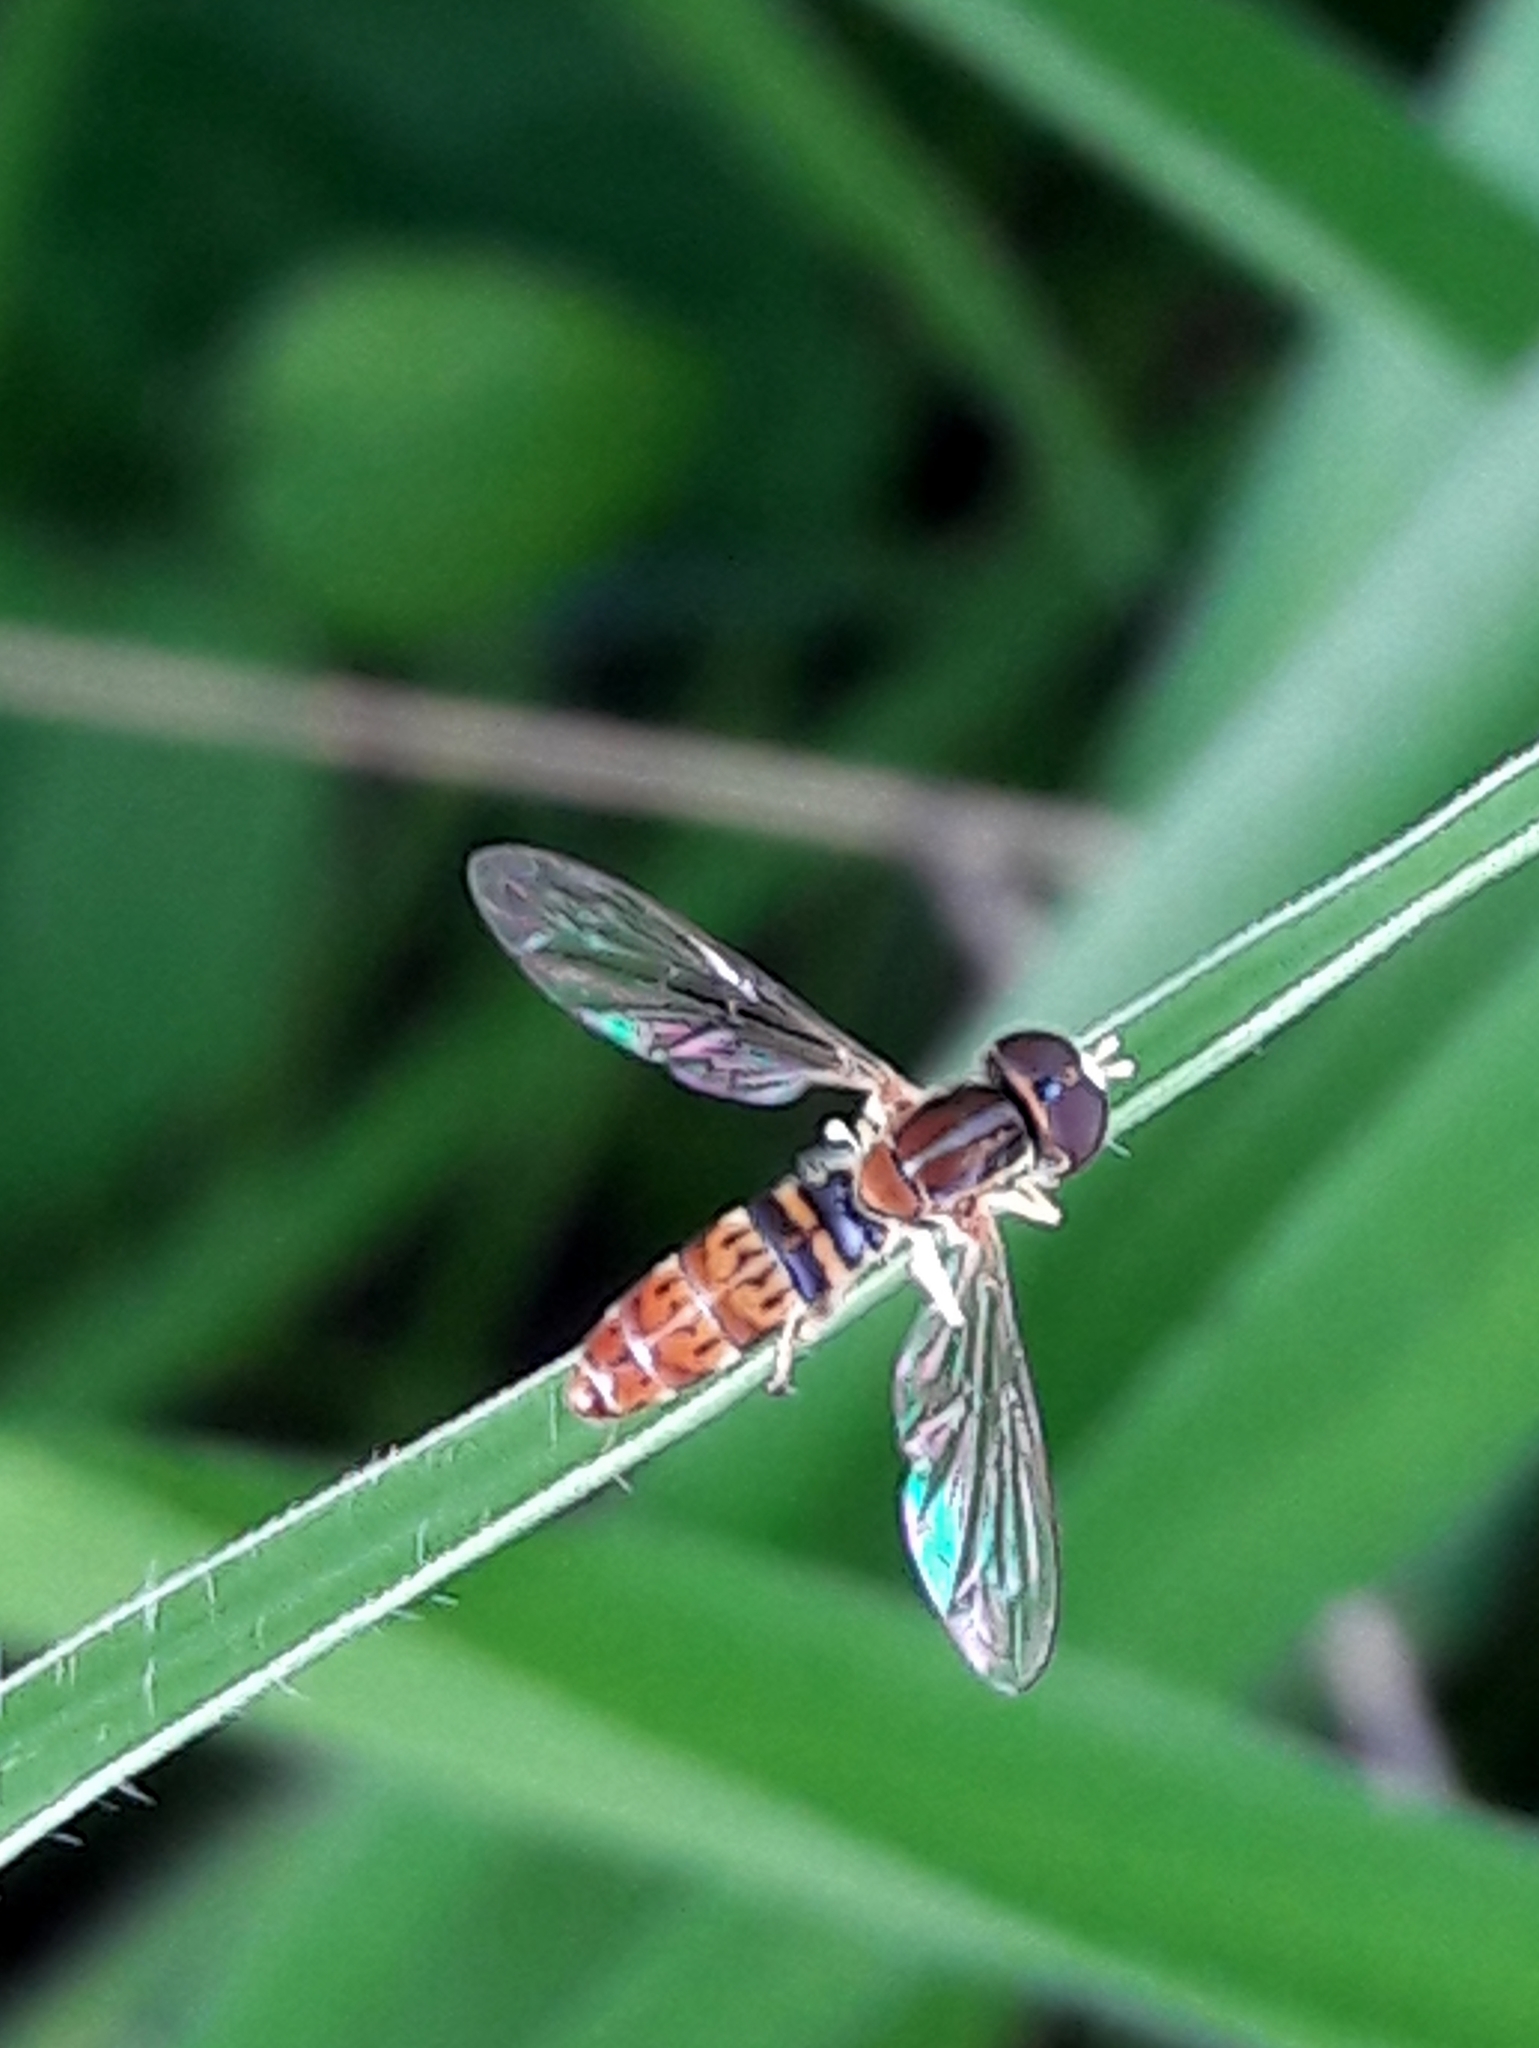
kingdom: Animalia
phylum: Arthropoda
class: Insecta
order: Diptera
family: Syrphidae
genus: Toxomerus
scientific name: Toxomerus
